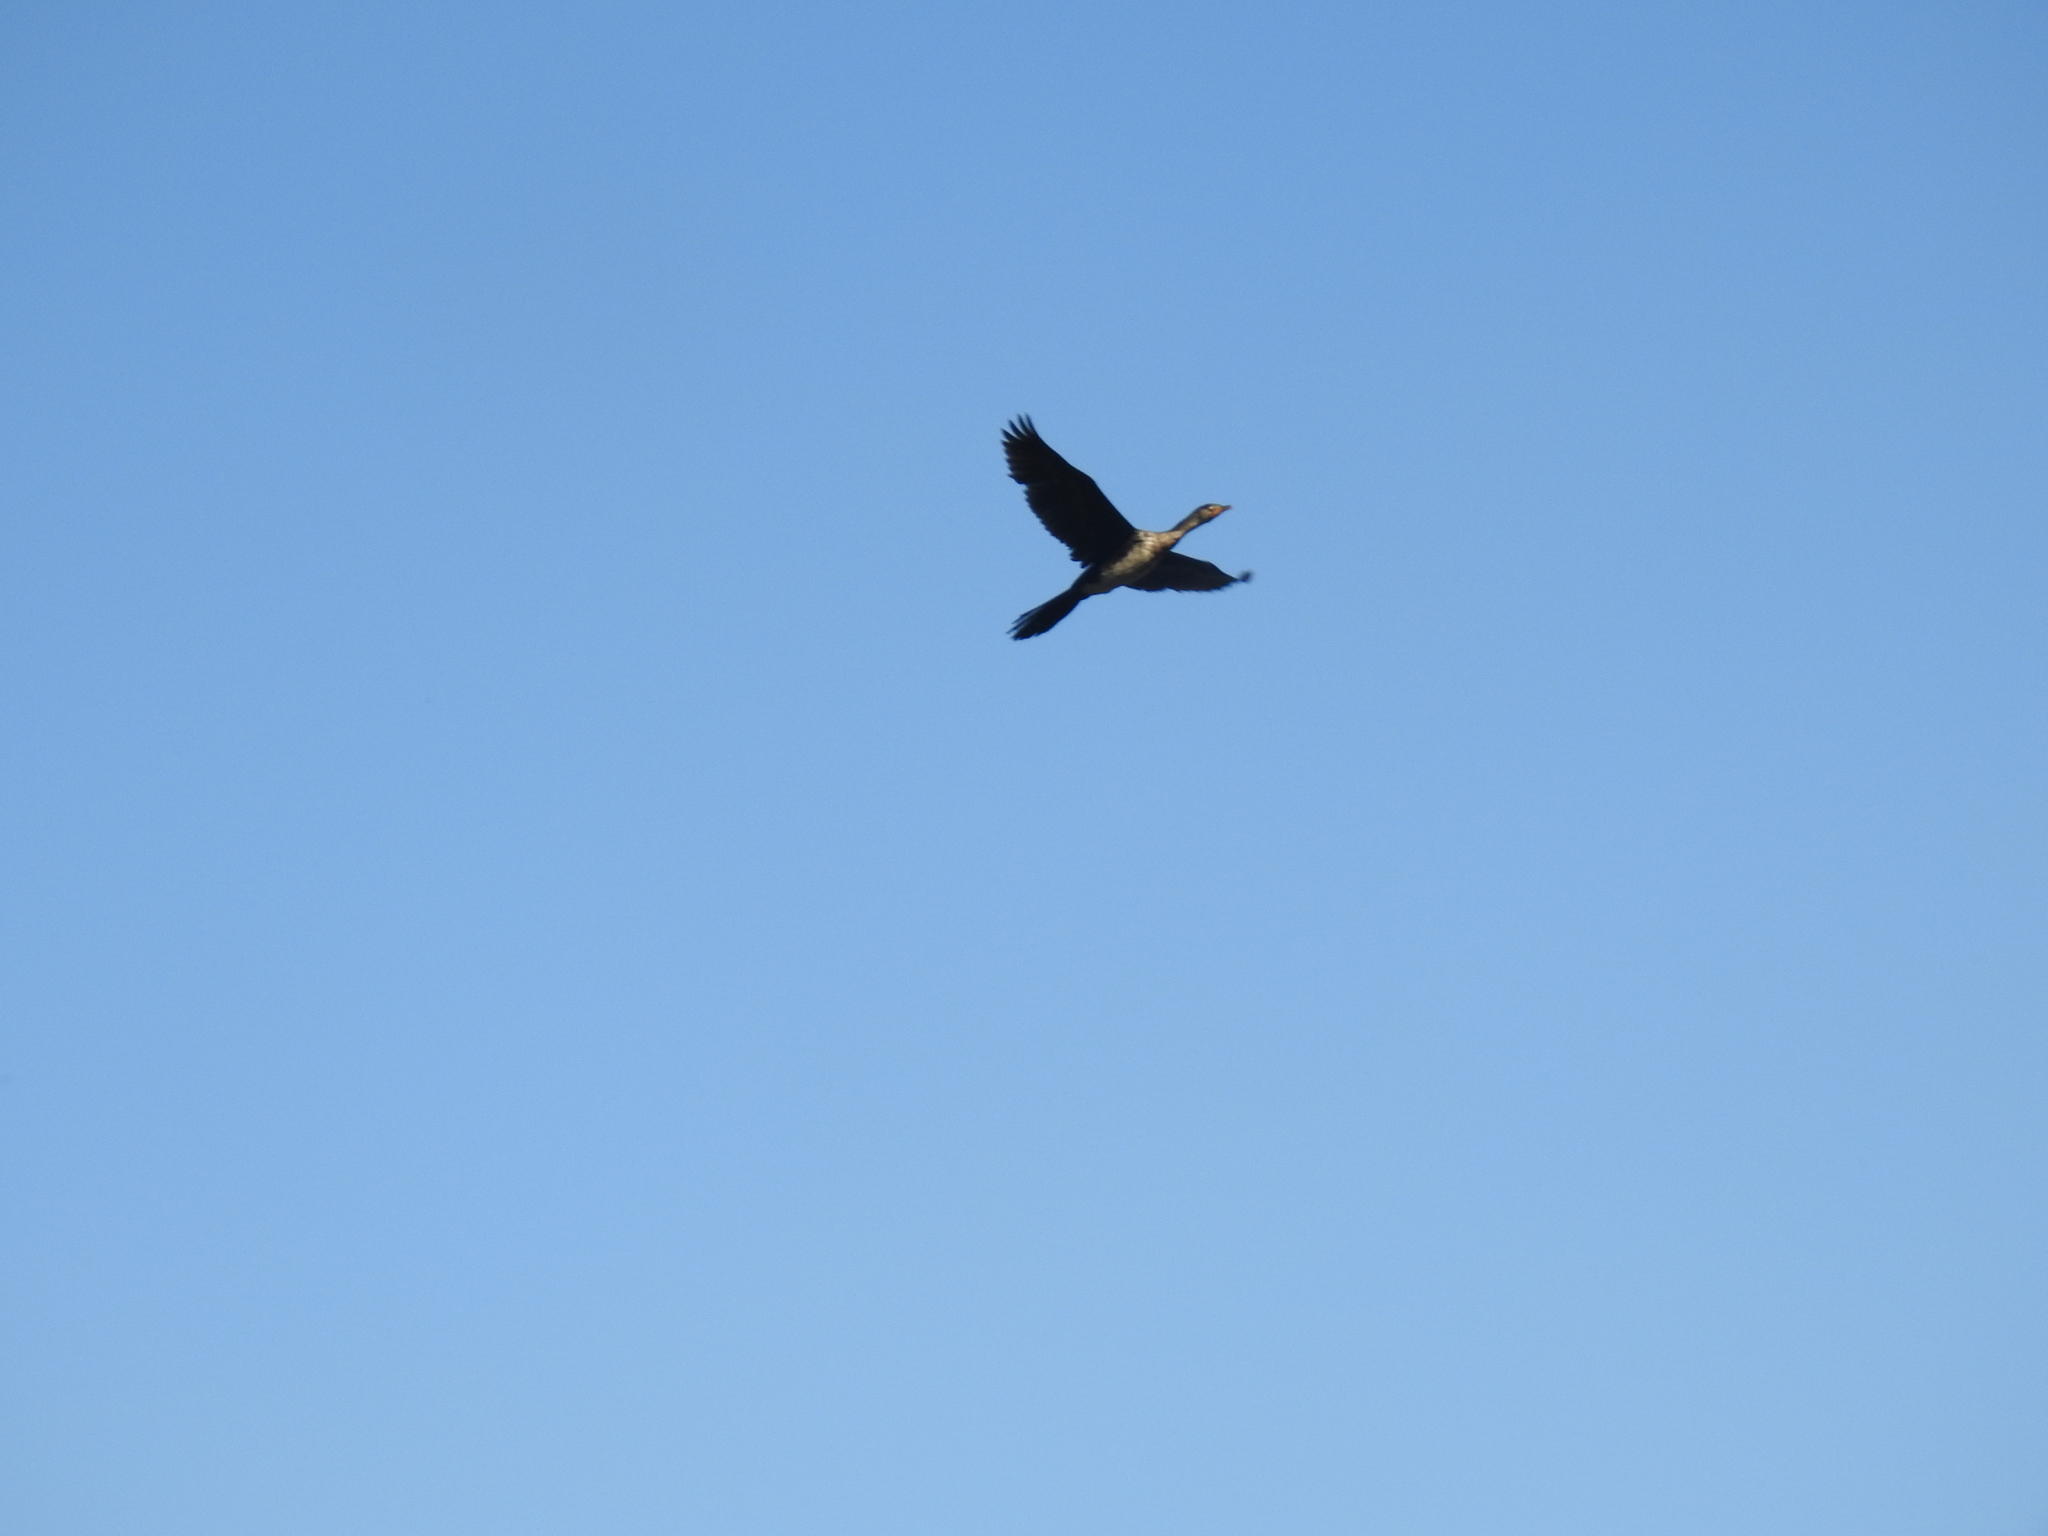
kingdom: Animalia
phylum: Chordata
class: Aves
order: Suliformes
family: Phalacrocoracidae
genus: Microcarbo
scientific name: Microcarbo africanus
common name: Long-tailed cormorant
